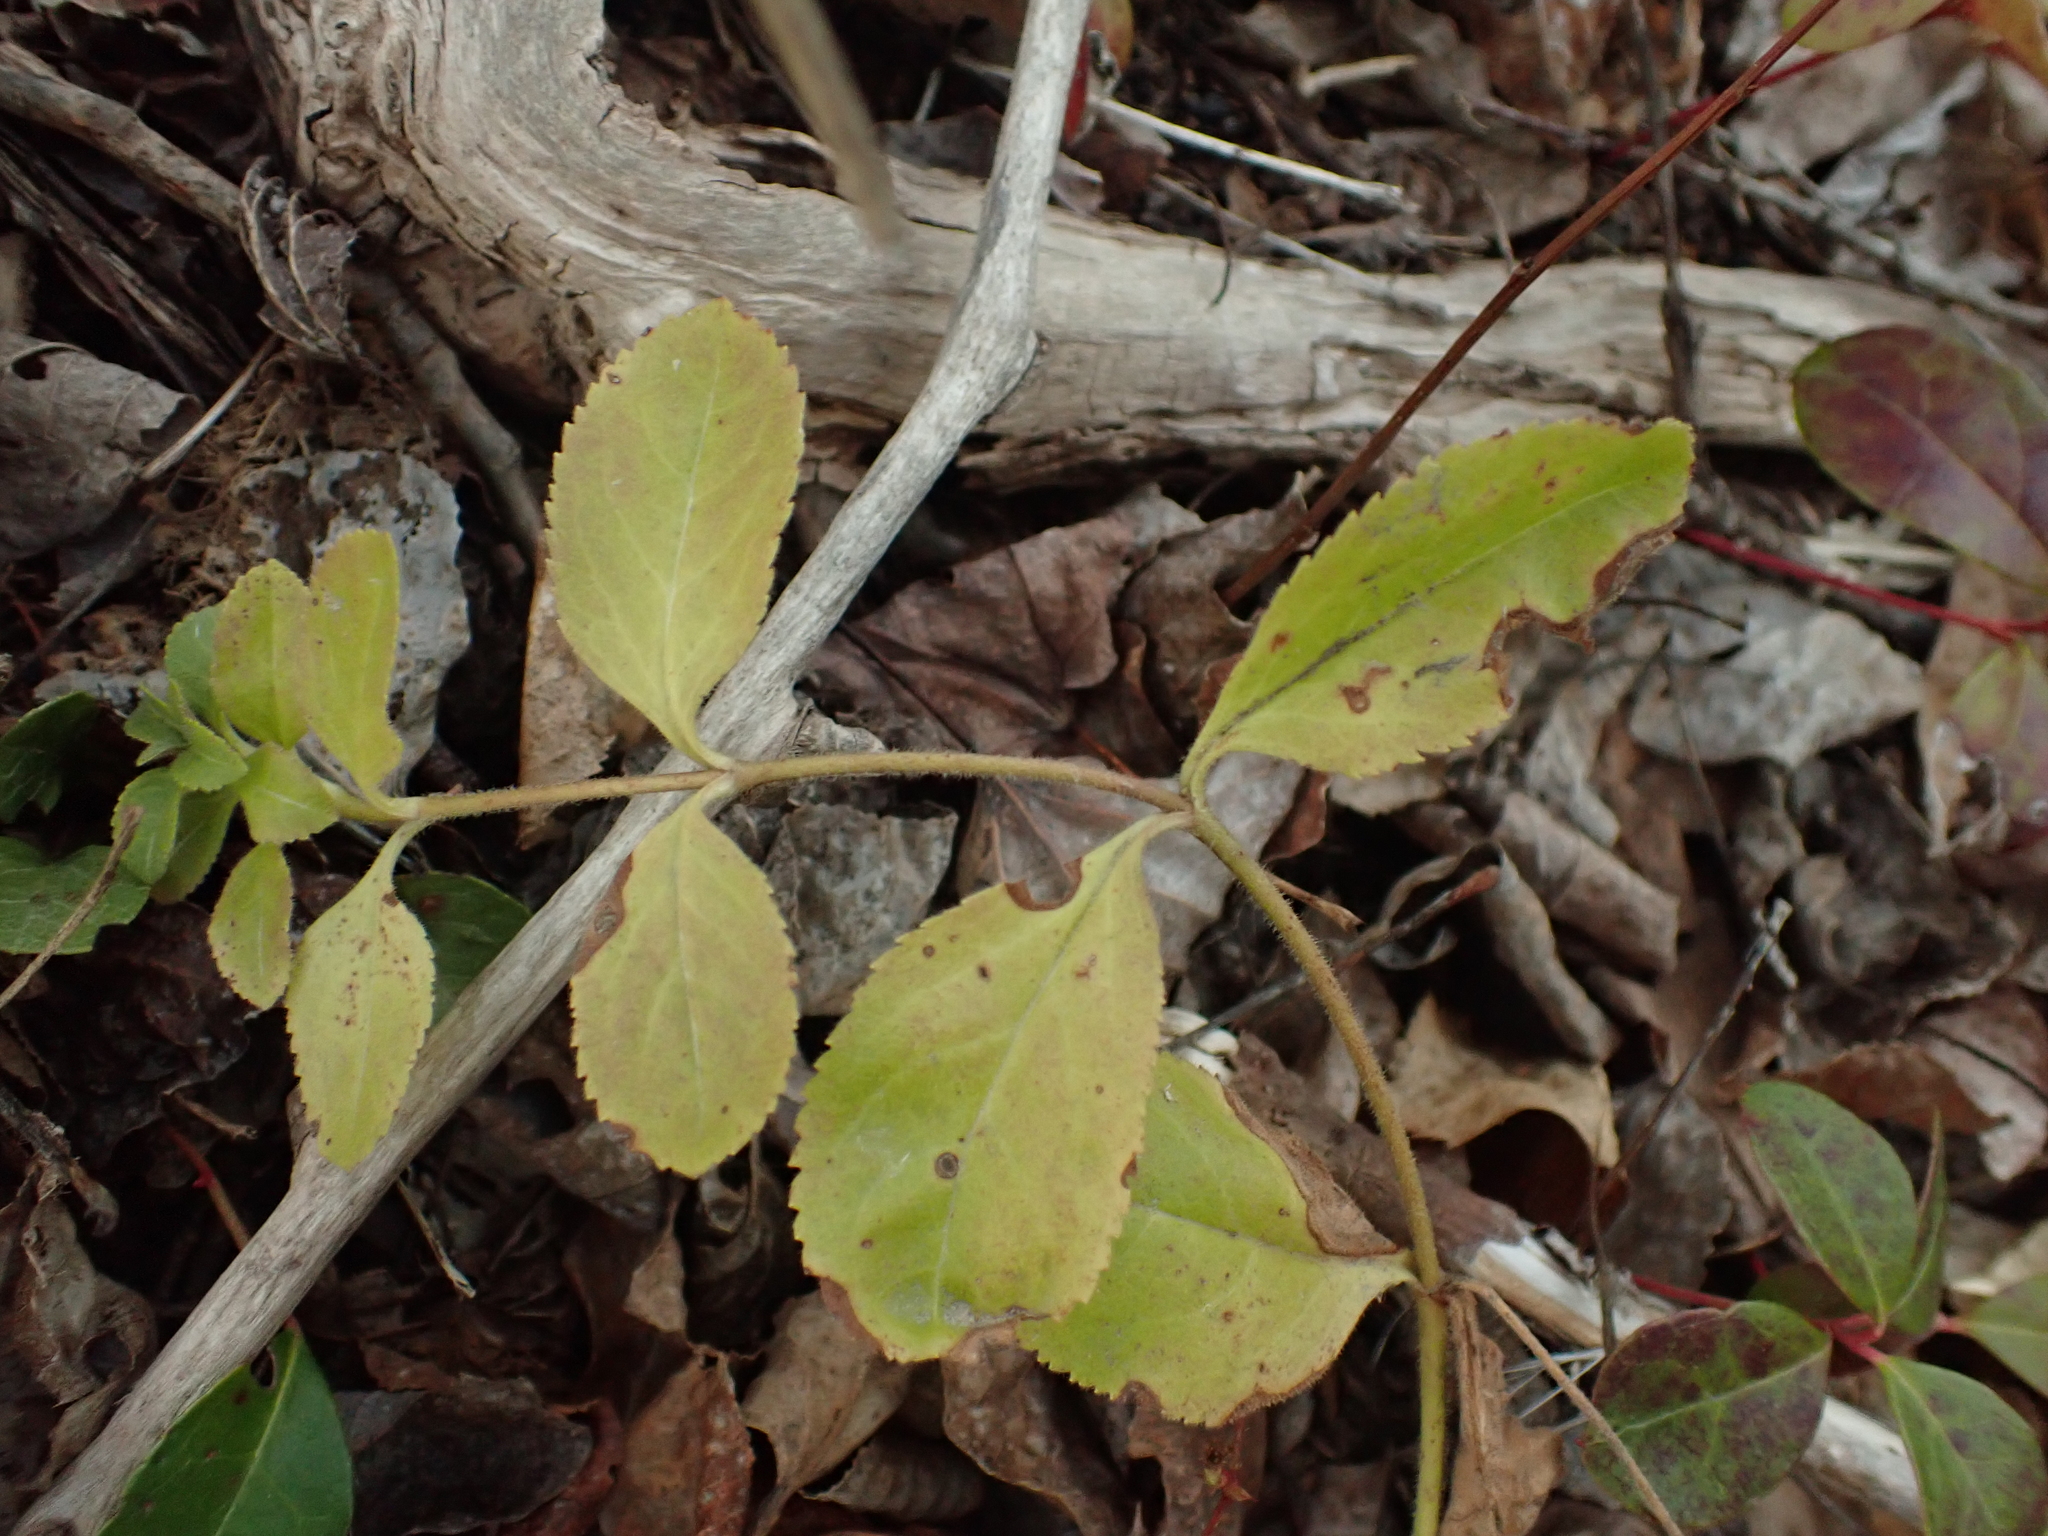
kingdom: Plantae
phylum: Tracheophyta
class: Magnoliopsida
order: Lamiales
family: Plantaginaceae
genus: Veronica
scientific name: Veronica officinalis
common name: Common speedwell
